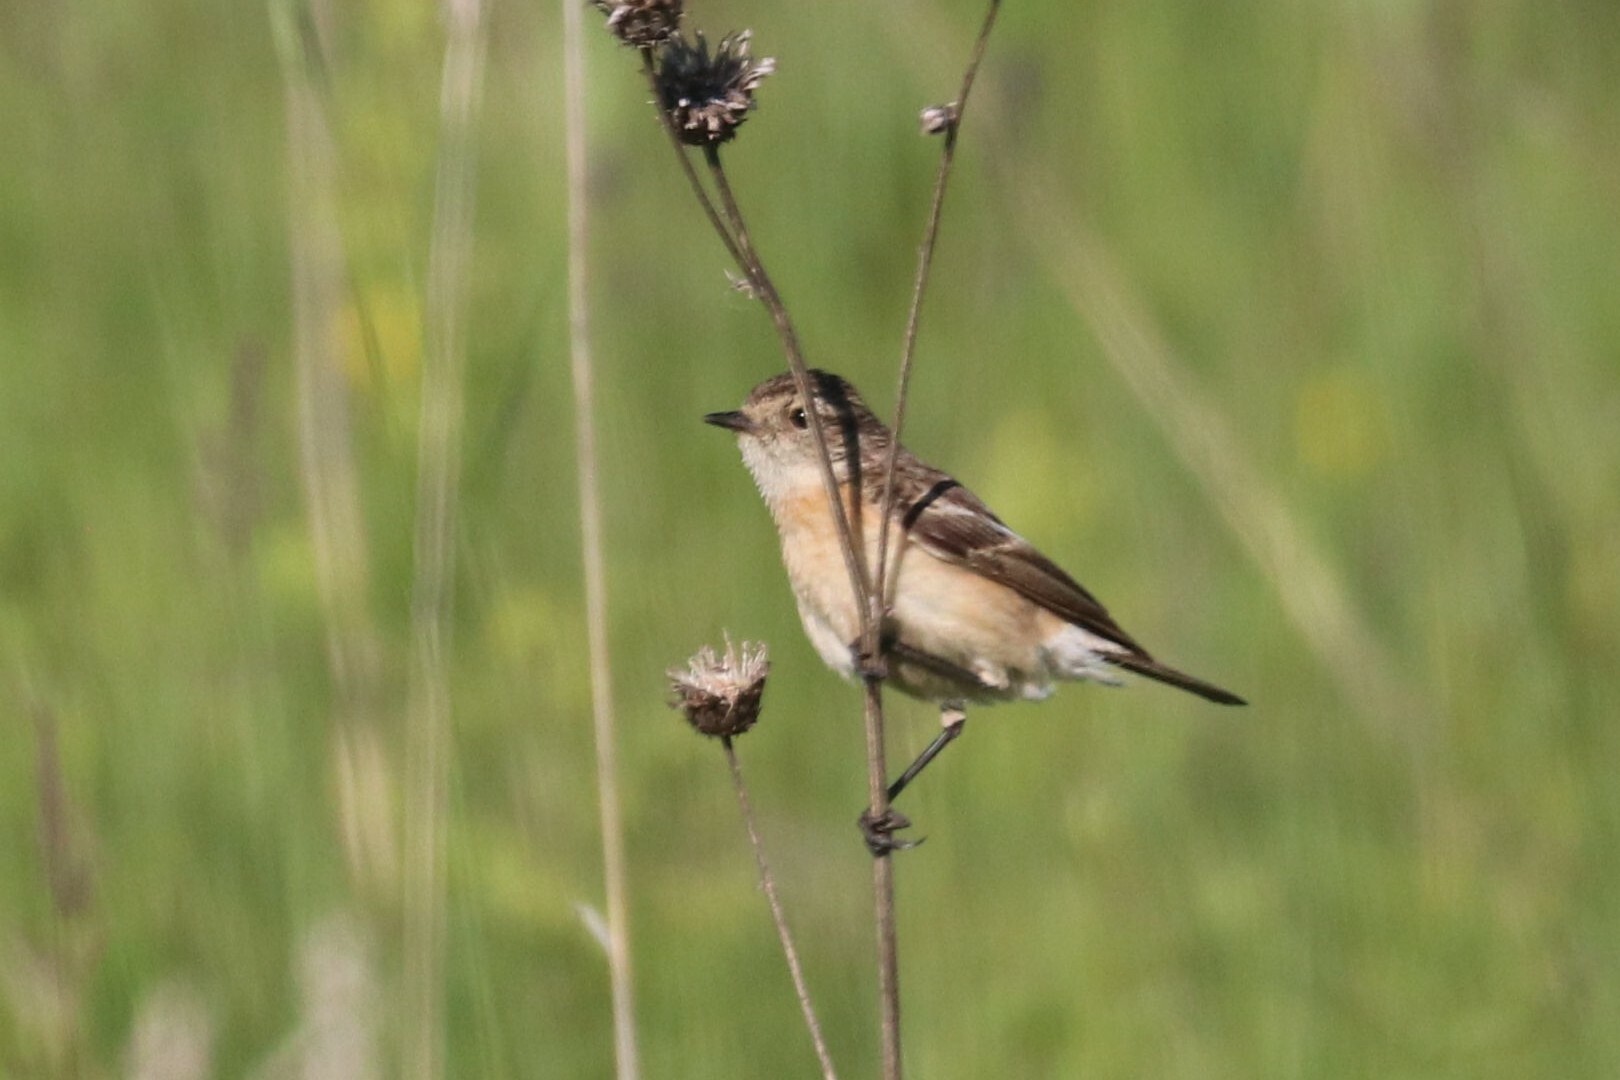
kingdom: Animalia
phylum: Chordata
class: Aves
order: Passeriformes
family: Muscicapidae
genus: Saxicola
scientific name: Saxicola maurus
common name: Siberian stonechat
